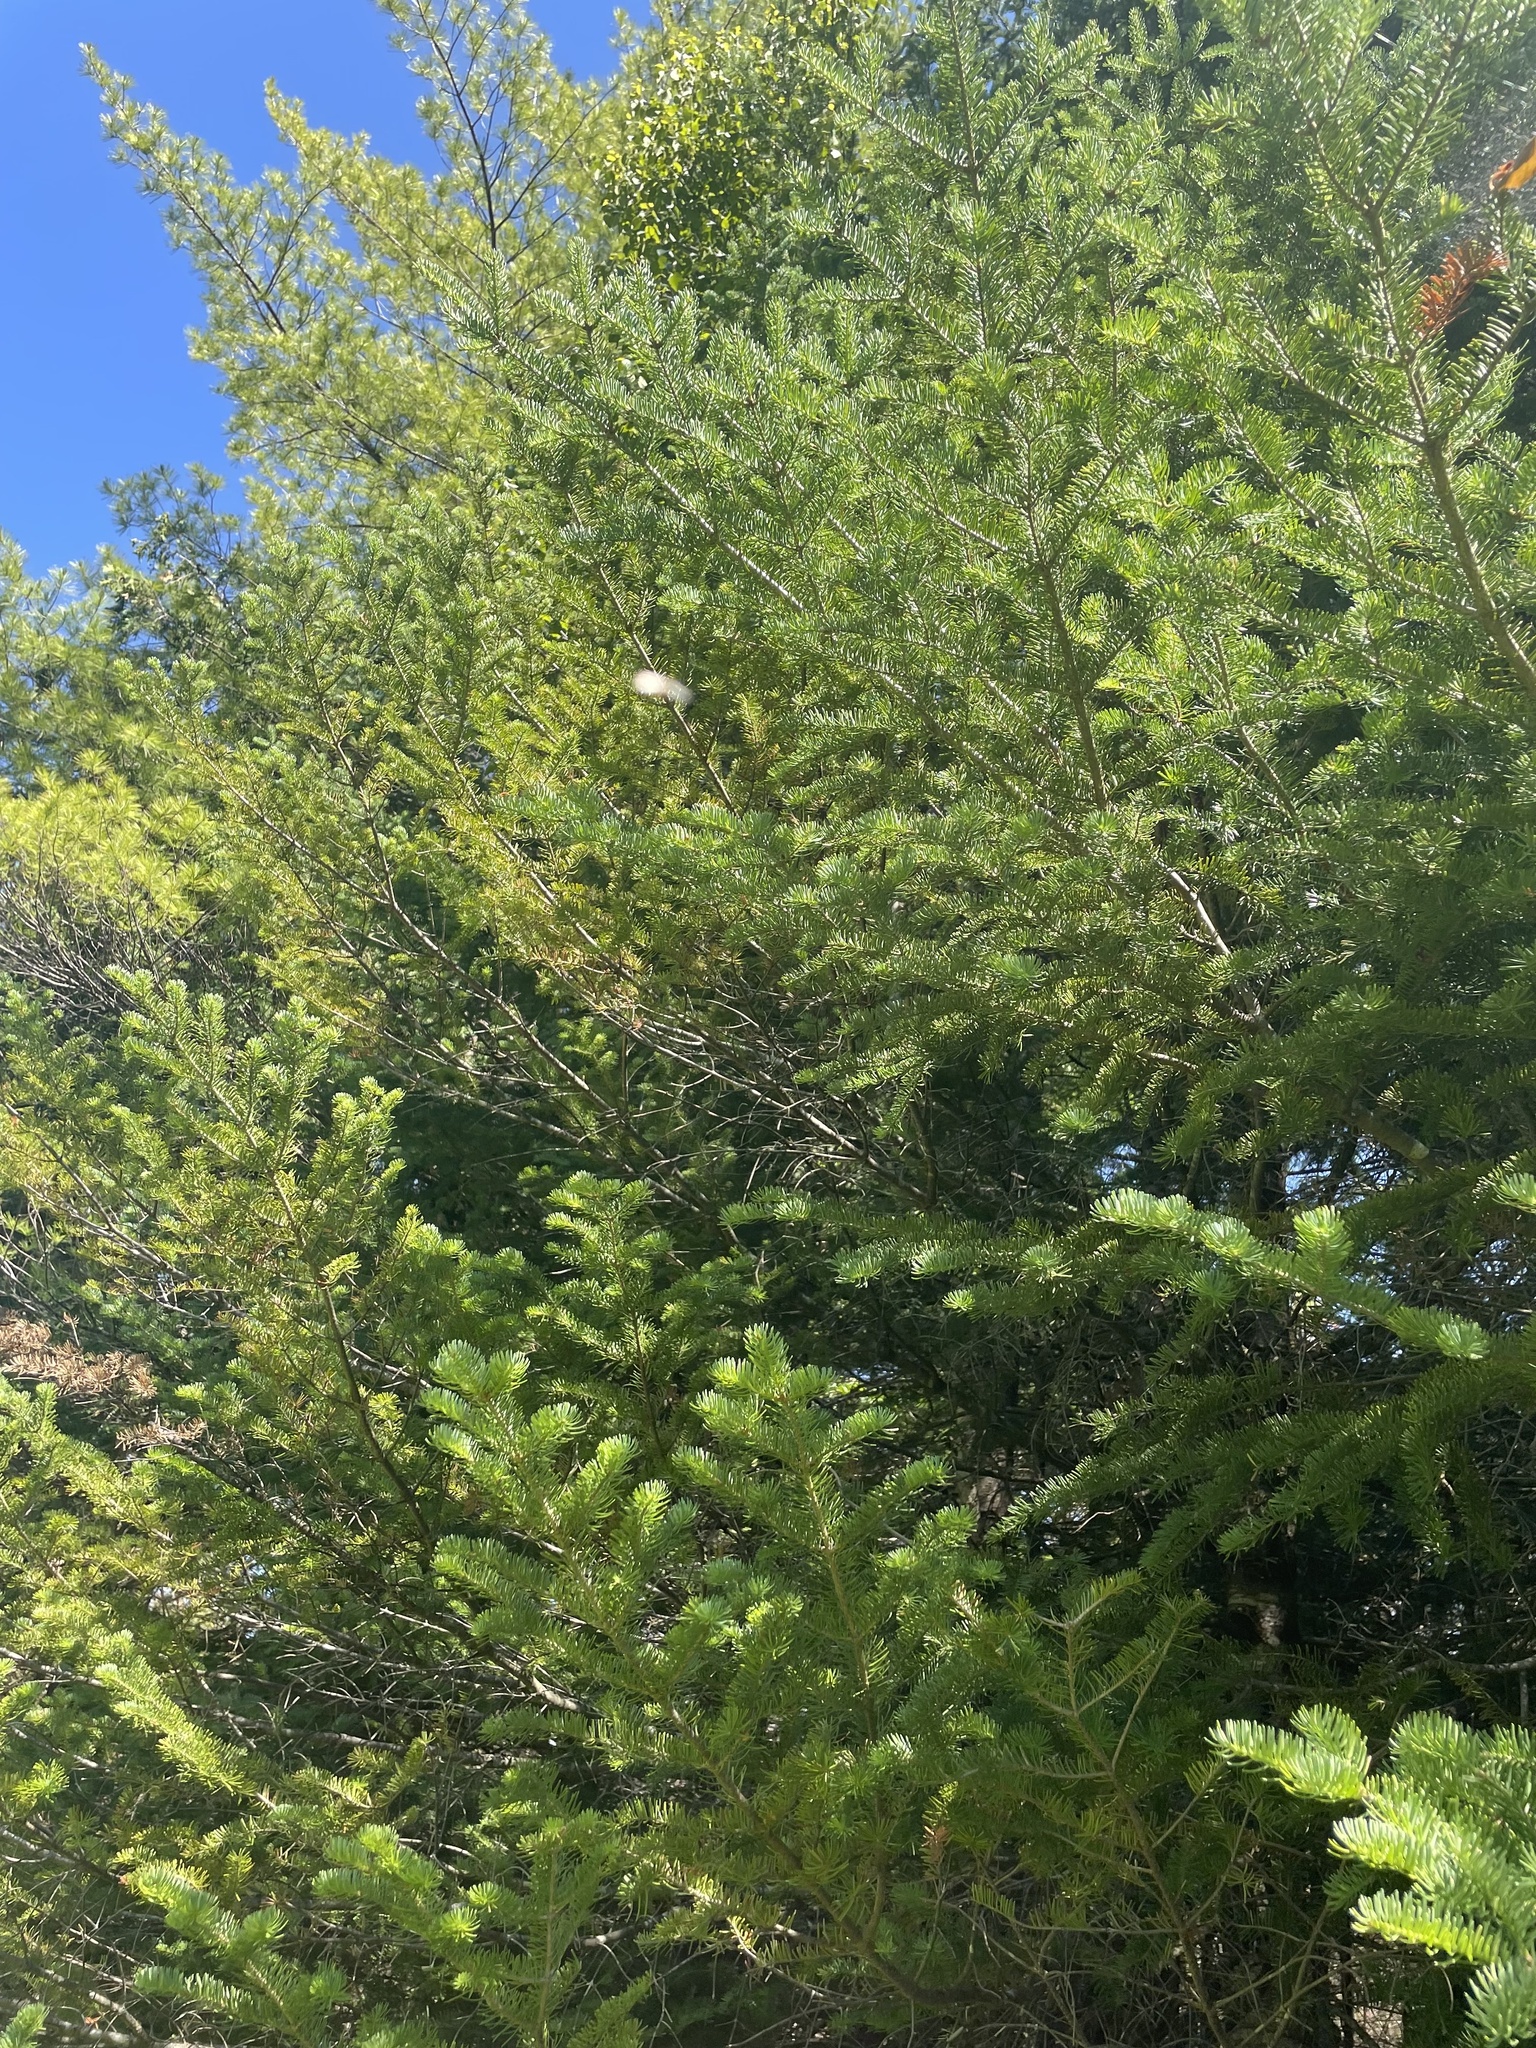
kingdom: Plantae
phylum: Tracheophyta
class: Pinopsida
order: Pinales
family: Pinaceae
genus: Abies
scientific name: Abies balsamea
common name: Balsam fir
